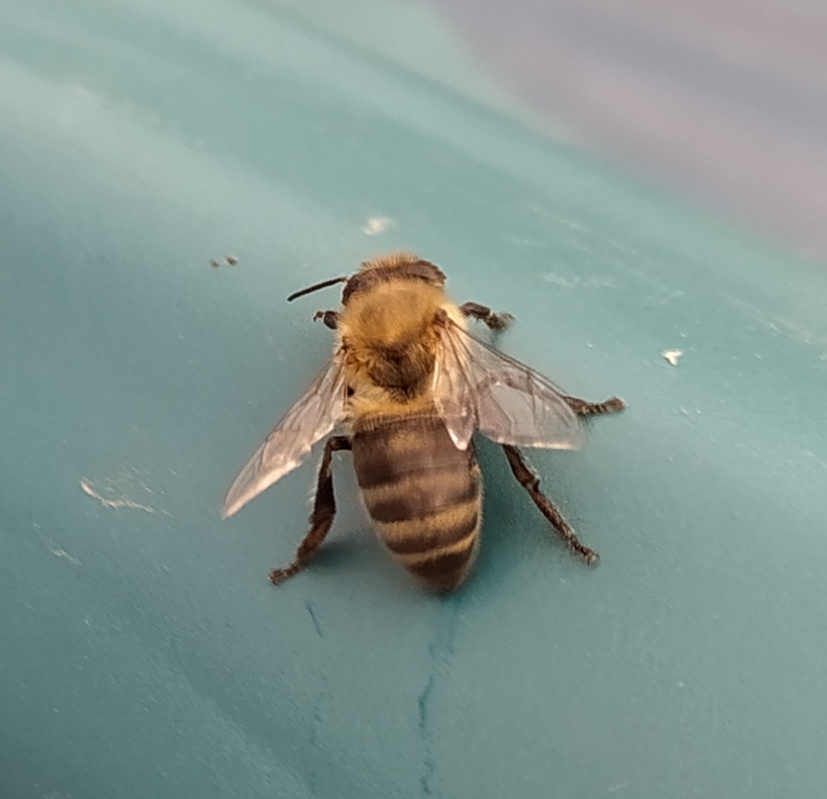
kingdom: Animalia
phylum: Arthropoda
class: Insecta
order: Hymenoptera
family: Apidae
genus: Apis
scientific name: Apis mellifera
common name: Honey bee
